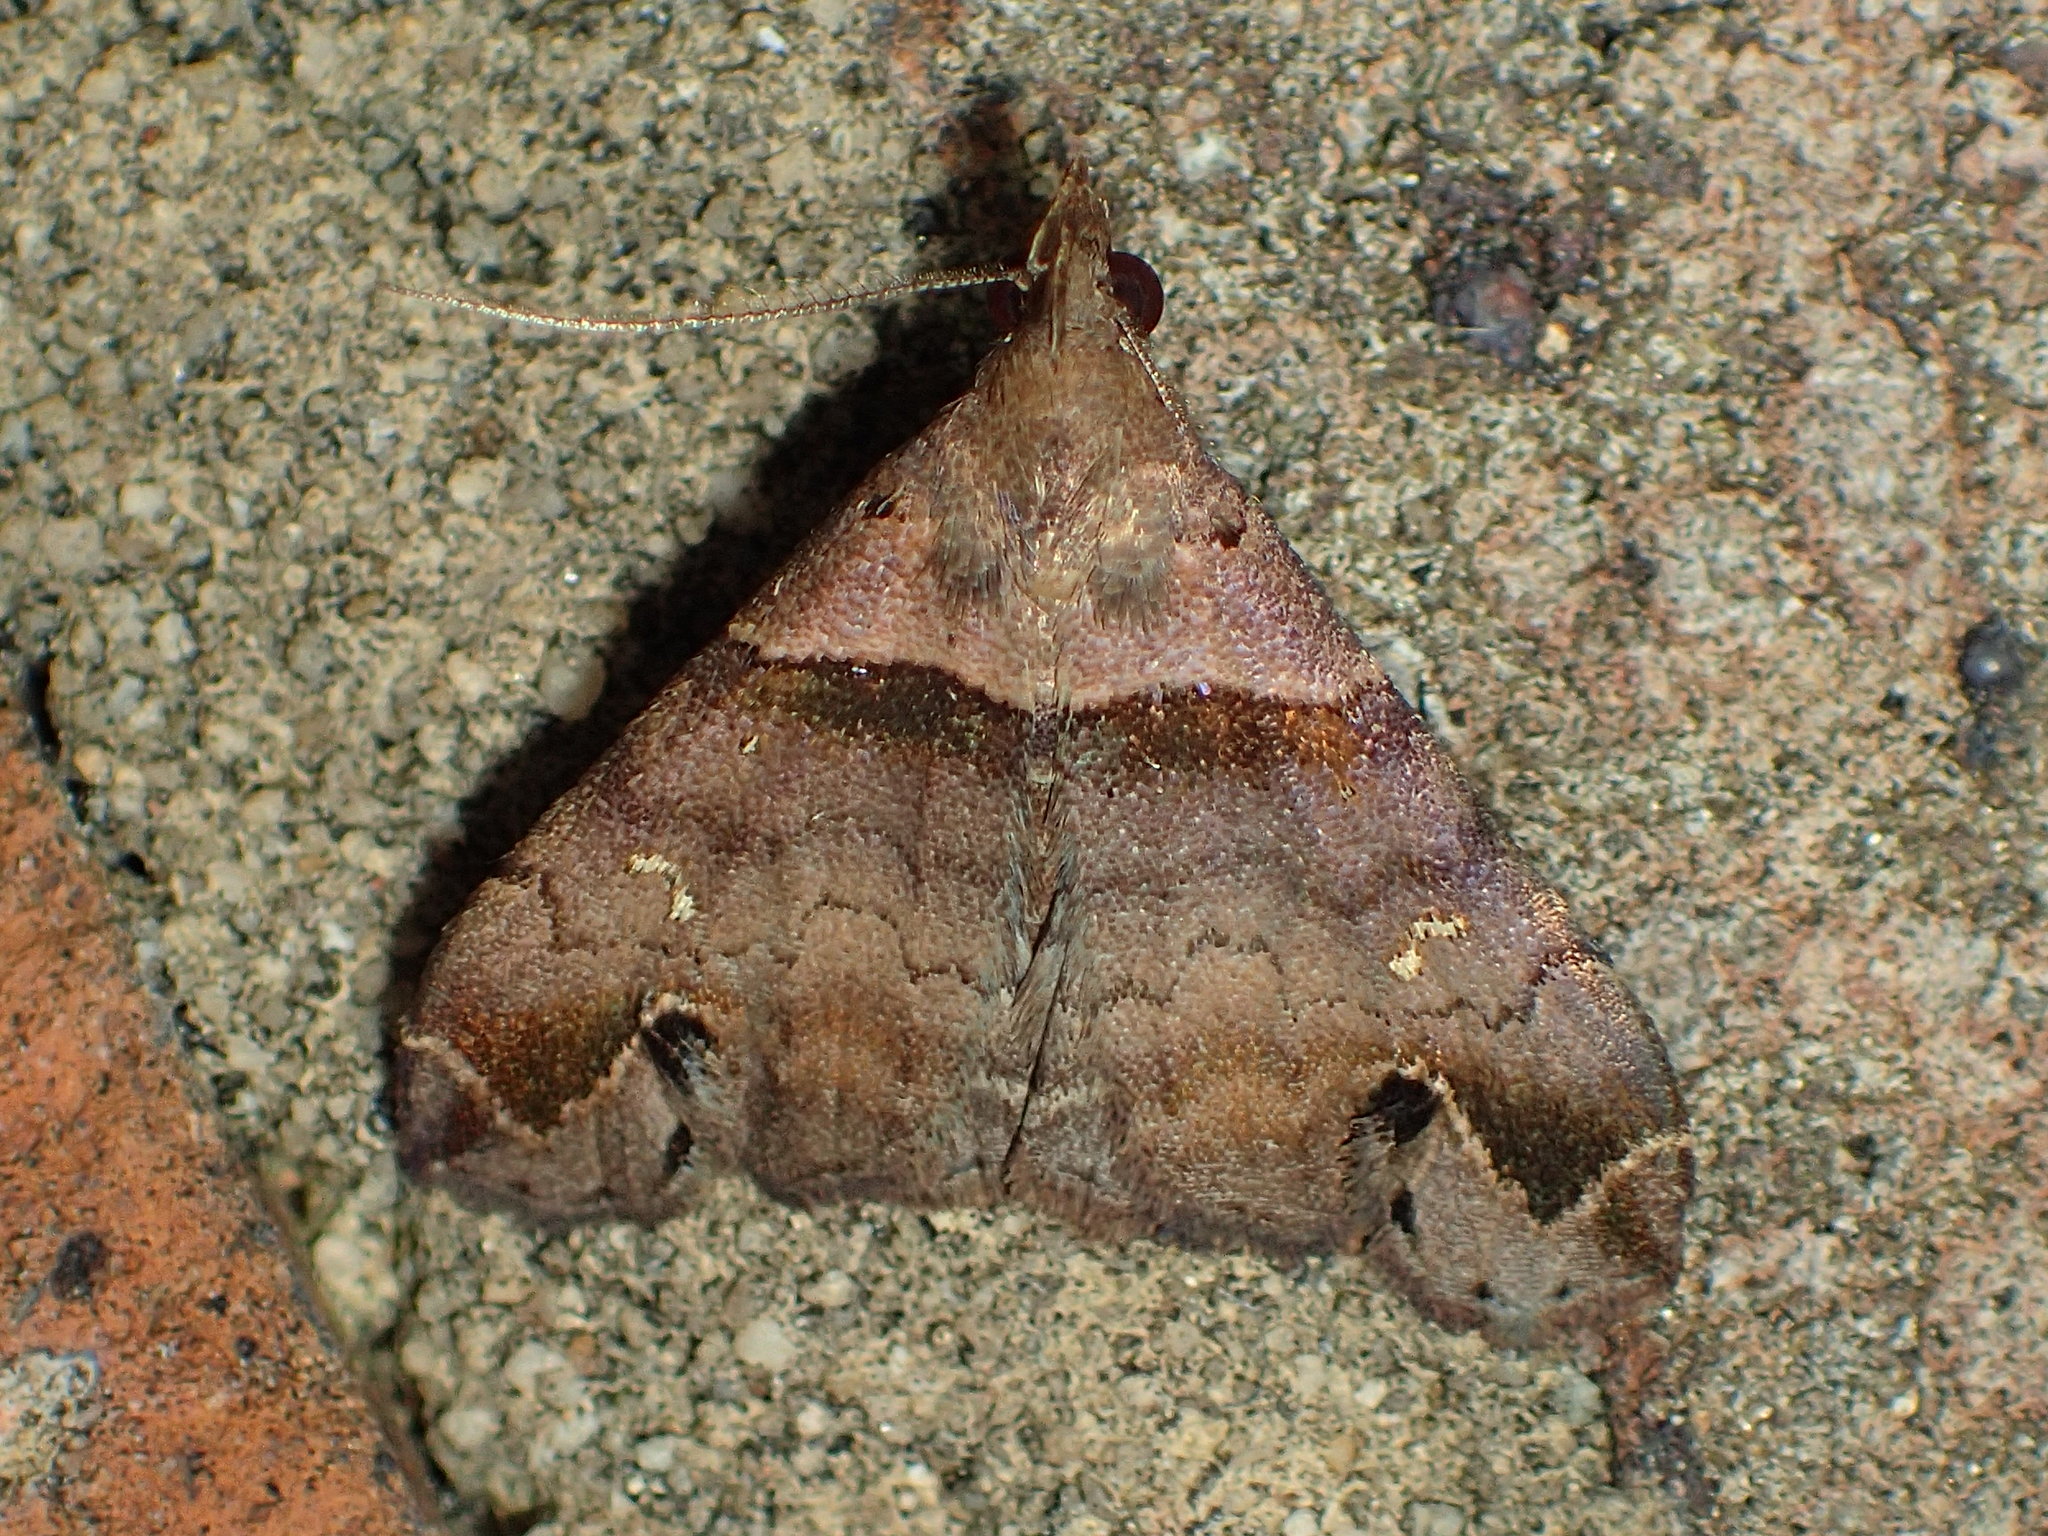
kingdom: Animalia
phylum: Arthropoda
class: Insecta
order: Lepidoptera
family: Erebidae
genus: Lascoria
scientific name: Lascoria ambigualis
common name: Ambiguous moth
